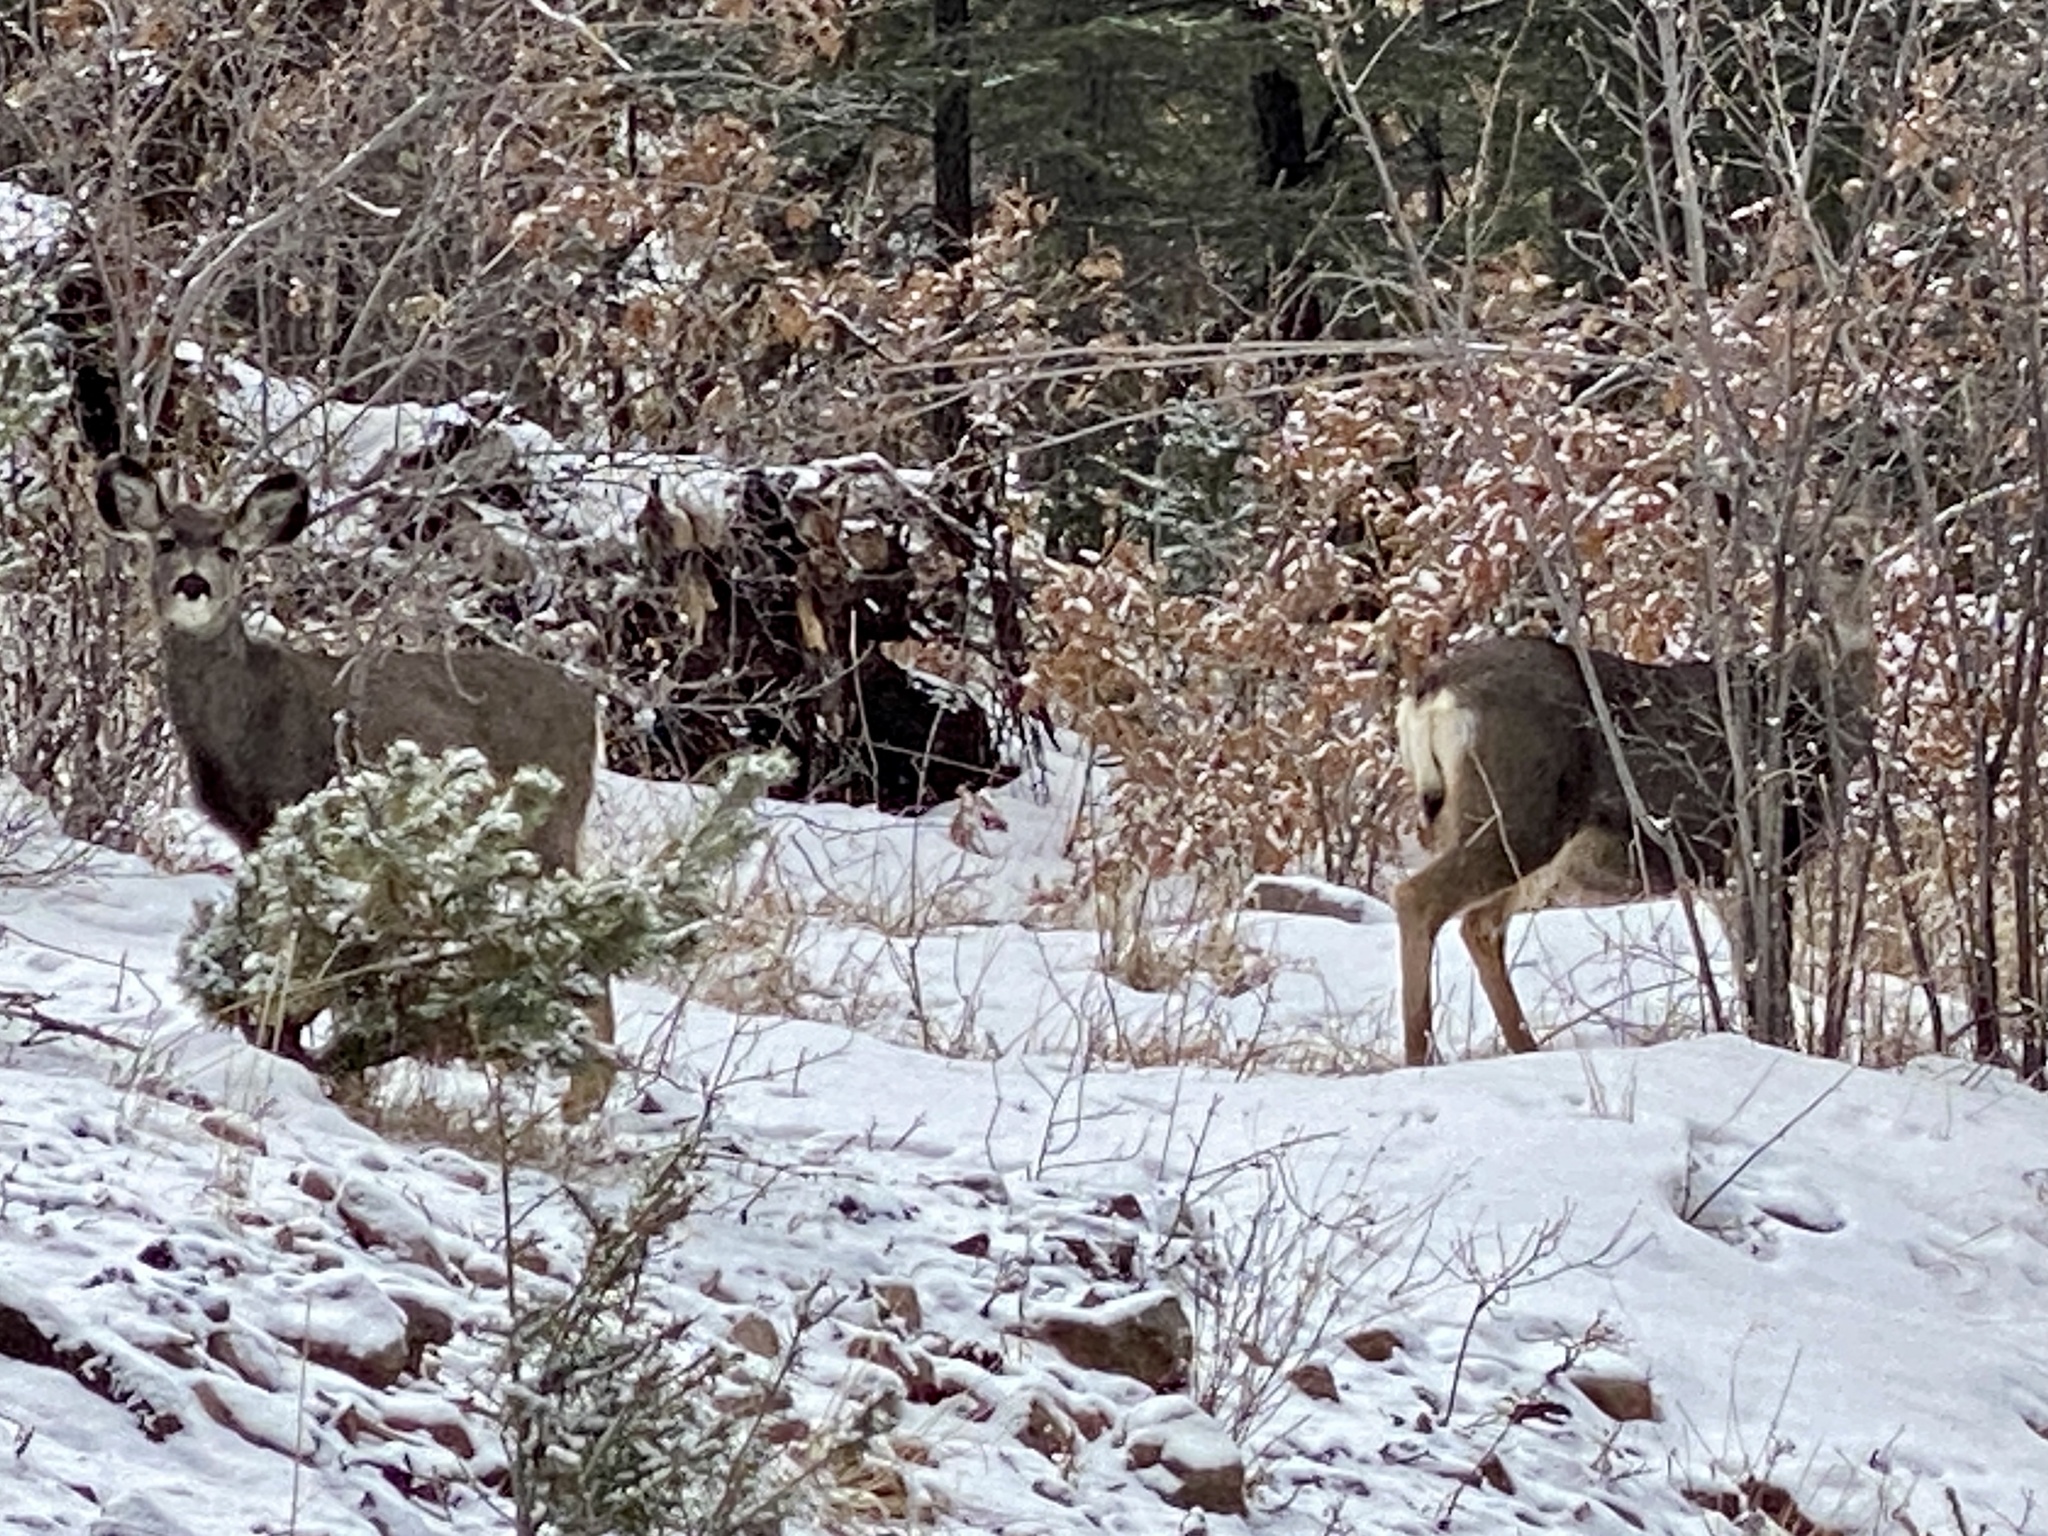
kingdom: Animalia
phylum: Chordata
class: Mammalia
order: Artiodactyla
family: Cervidae
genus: Odocoileus
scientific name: Odocoileus hemionus
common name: Mule deer
